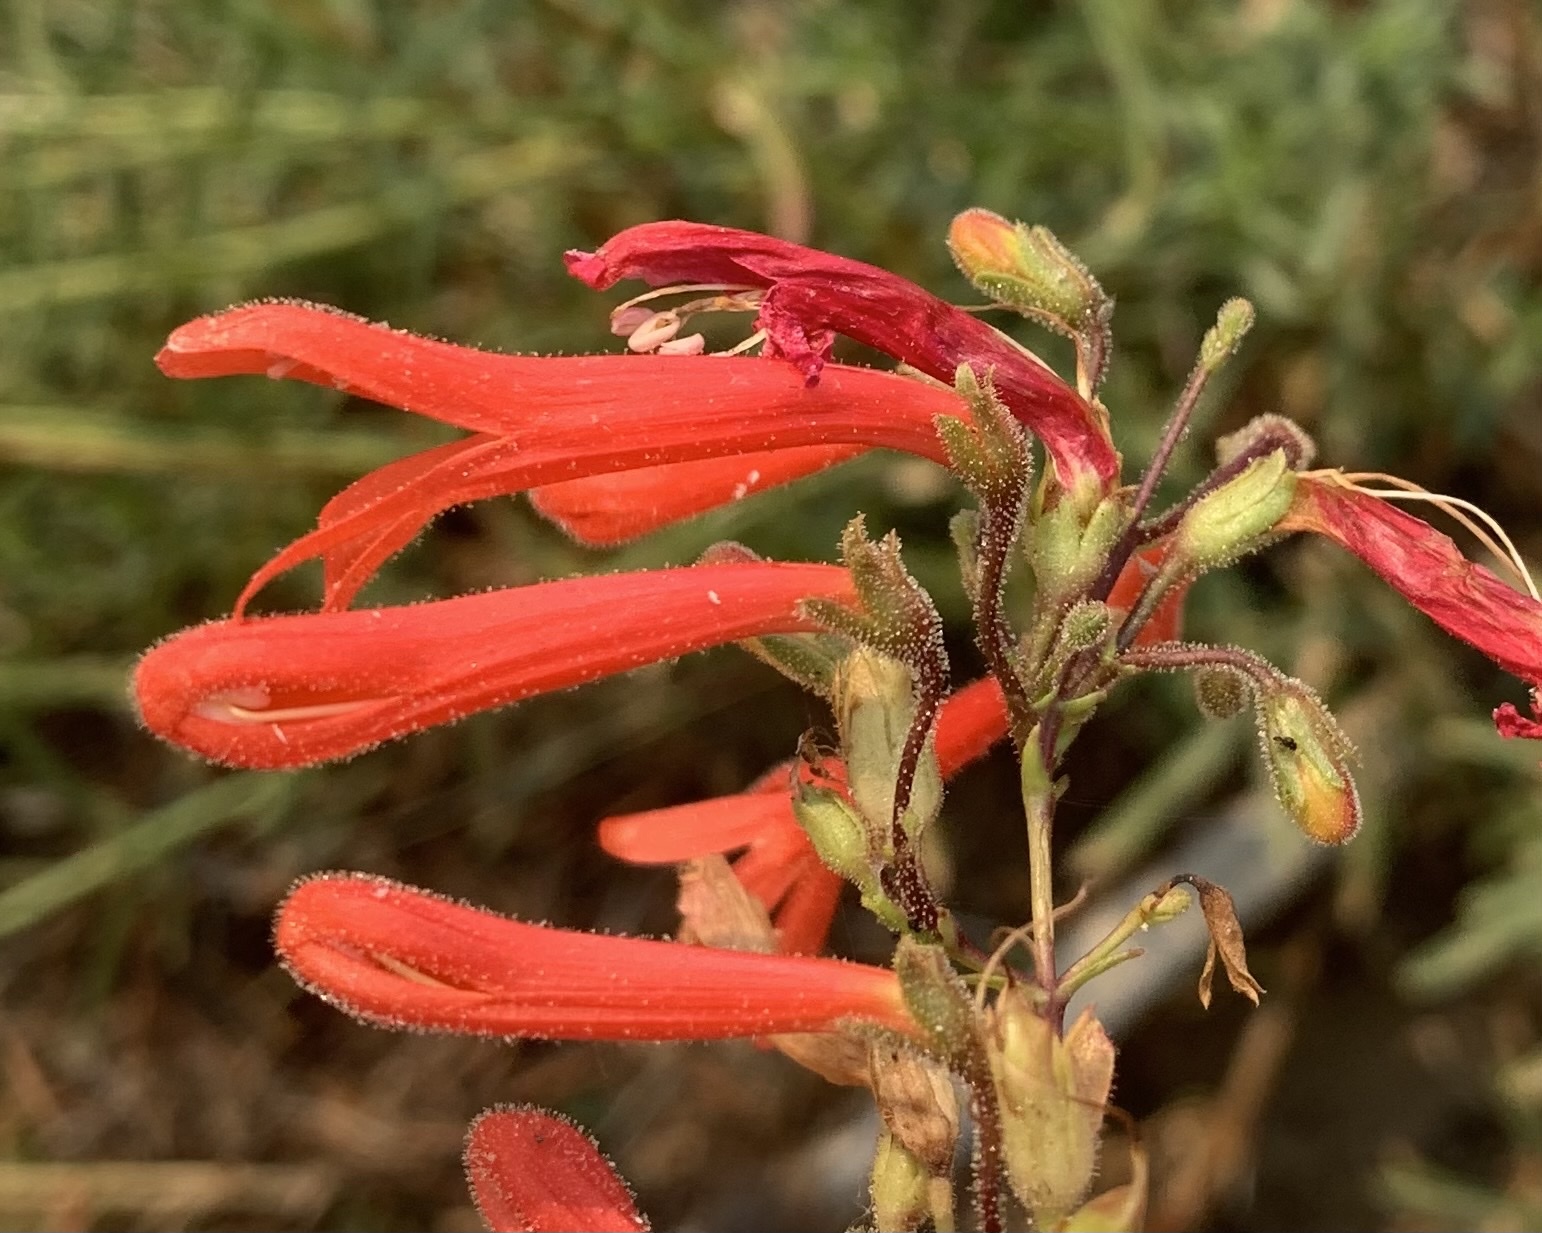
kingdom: Plantae
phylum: Tracheophyta
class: Magnoliopsida
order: Lamiales
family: Plantaginaceae
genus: Penstemon
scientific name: Penstemon rostriflorus
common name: Bridges's penstemon
